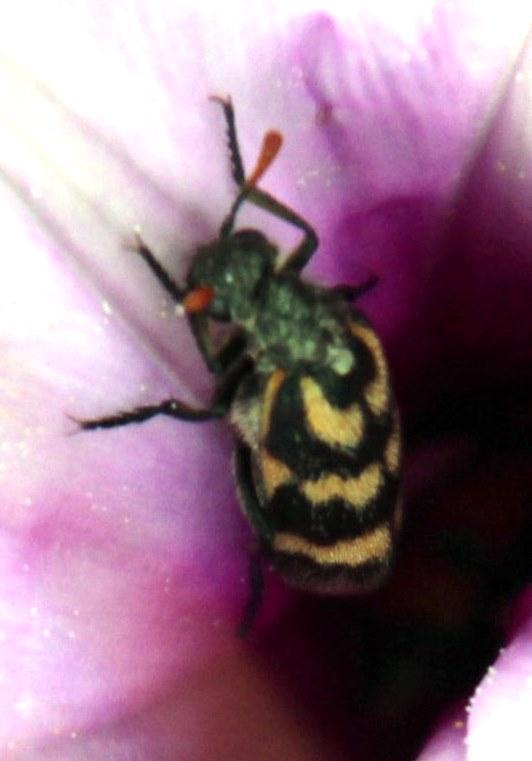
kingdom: Animalia
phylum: Arthropoda
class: Insecta
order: Coleoptera
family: Meloidae
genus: Meloe
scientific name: Meloe lunata
